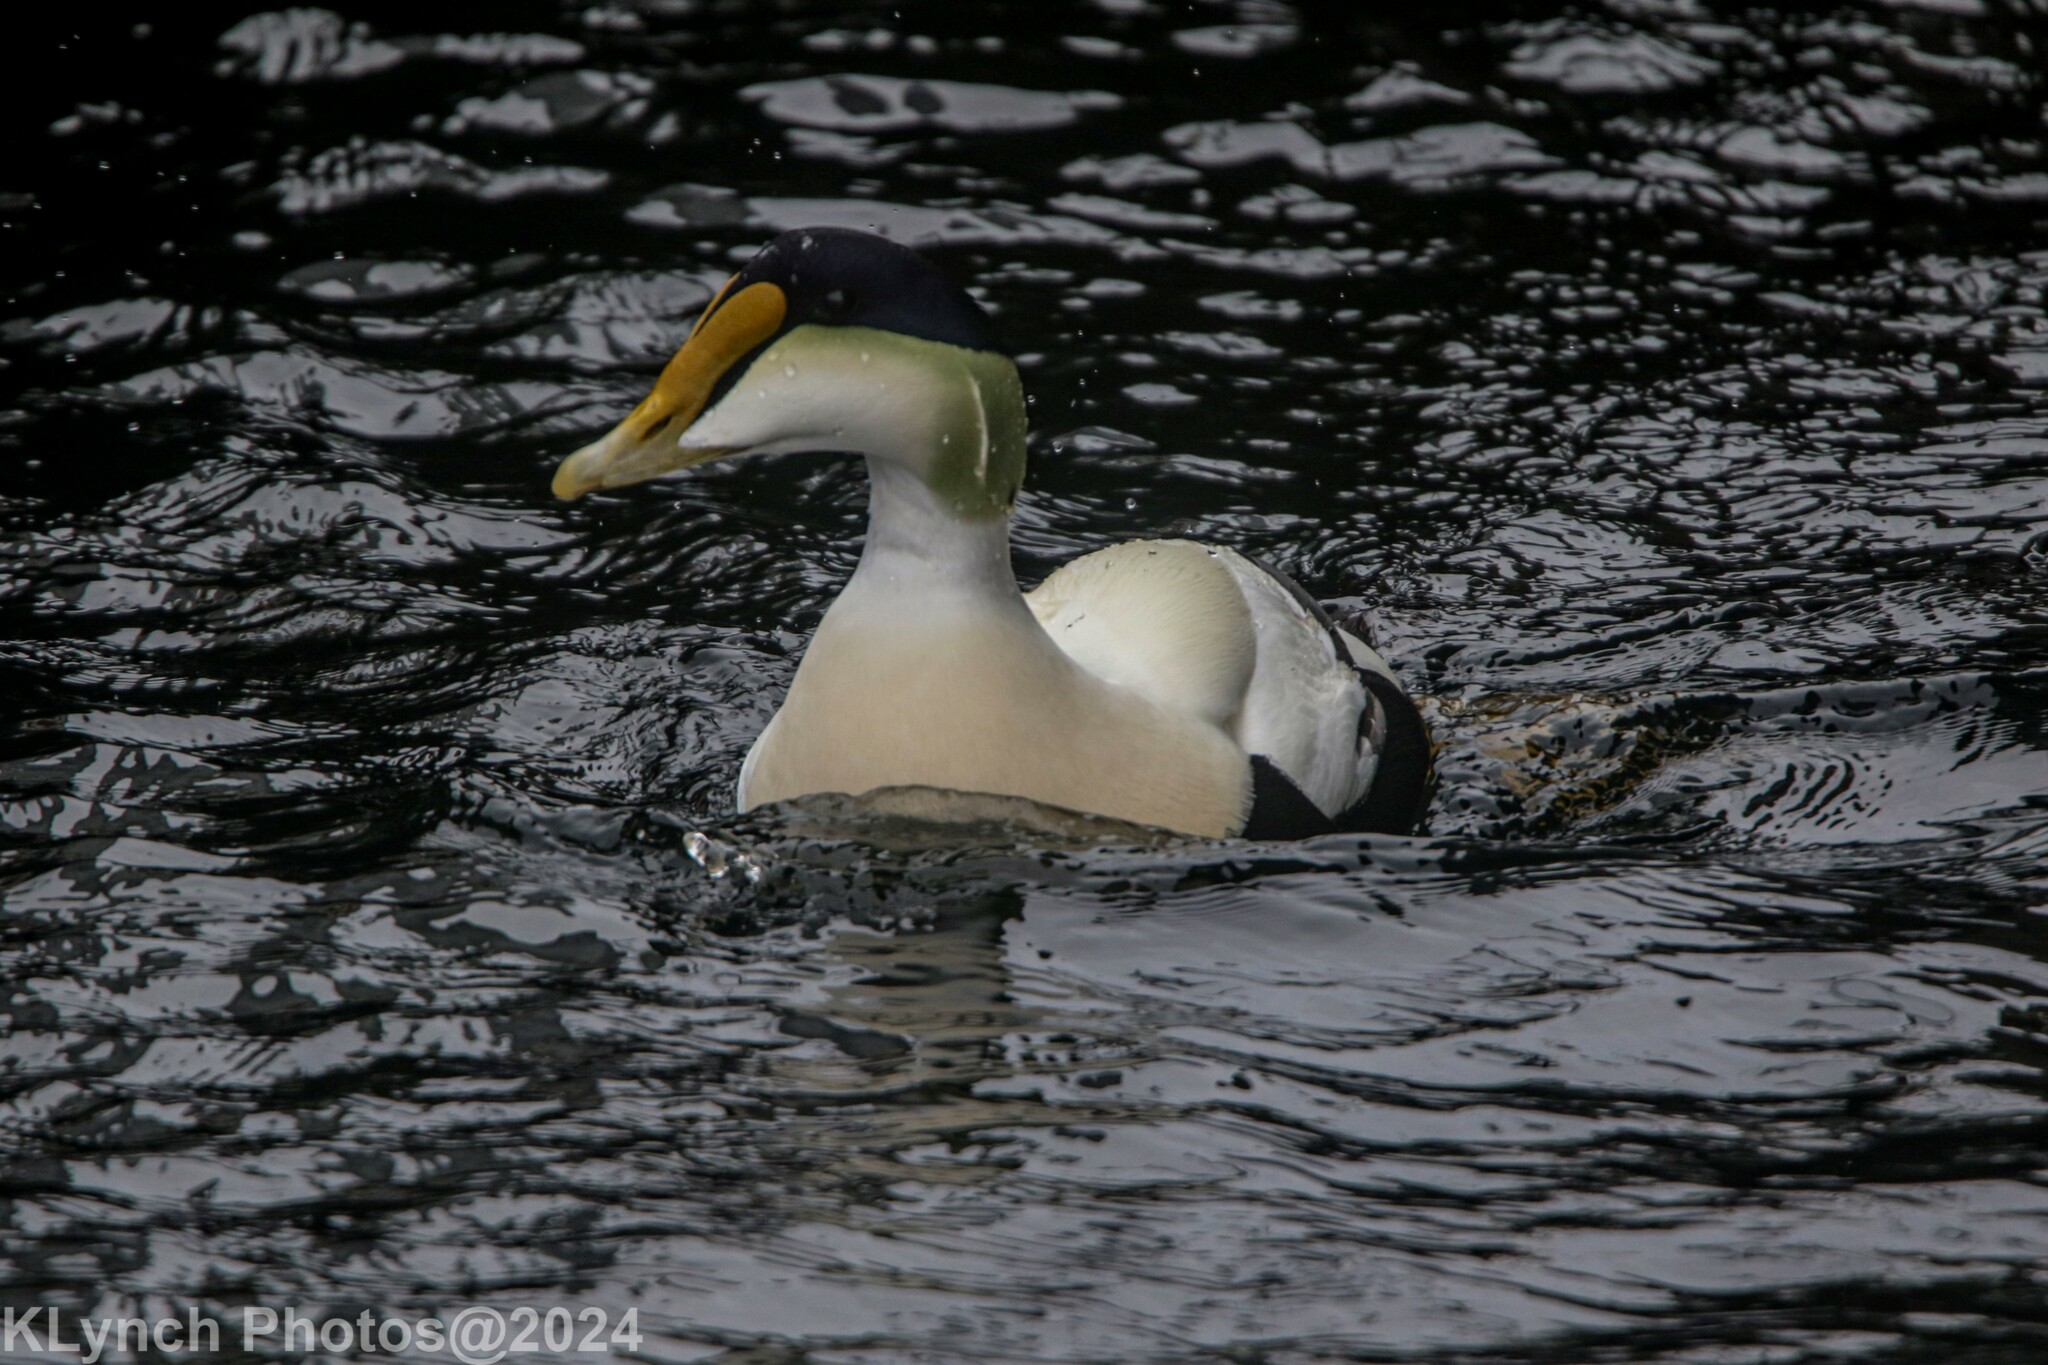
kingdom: Animalia
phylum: Chordata
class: Aves
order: Anseriformes
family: Anatidae
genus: Somateria
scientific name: Somateria mollissima
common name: Common eider
